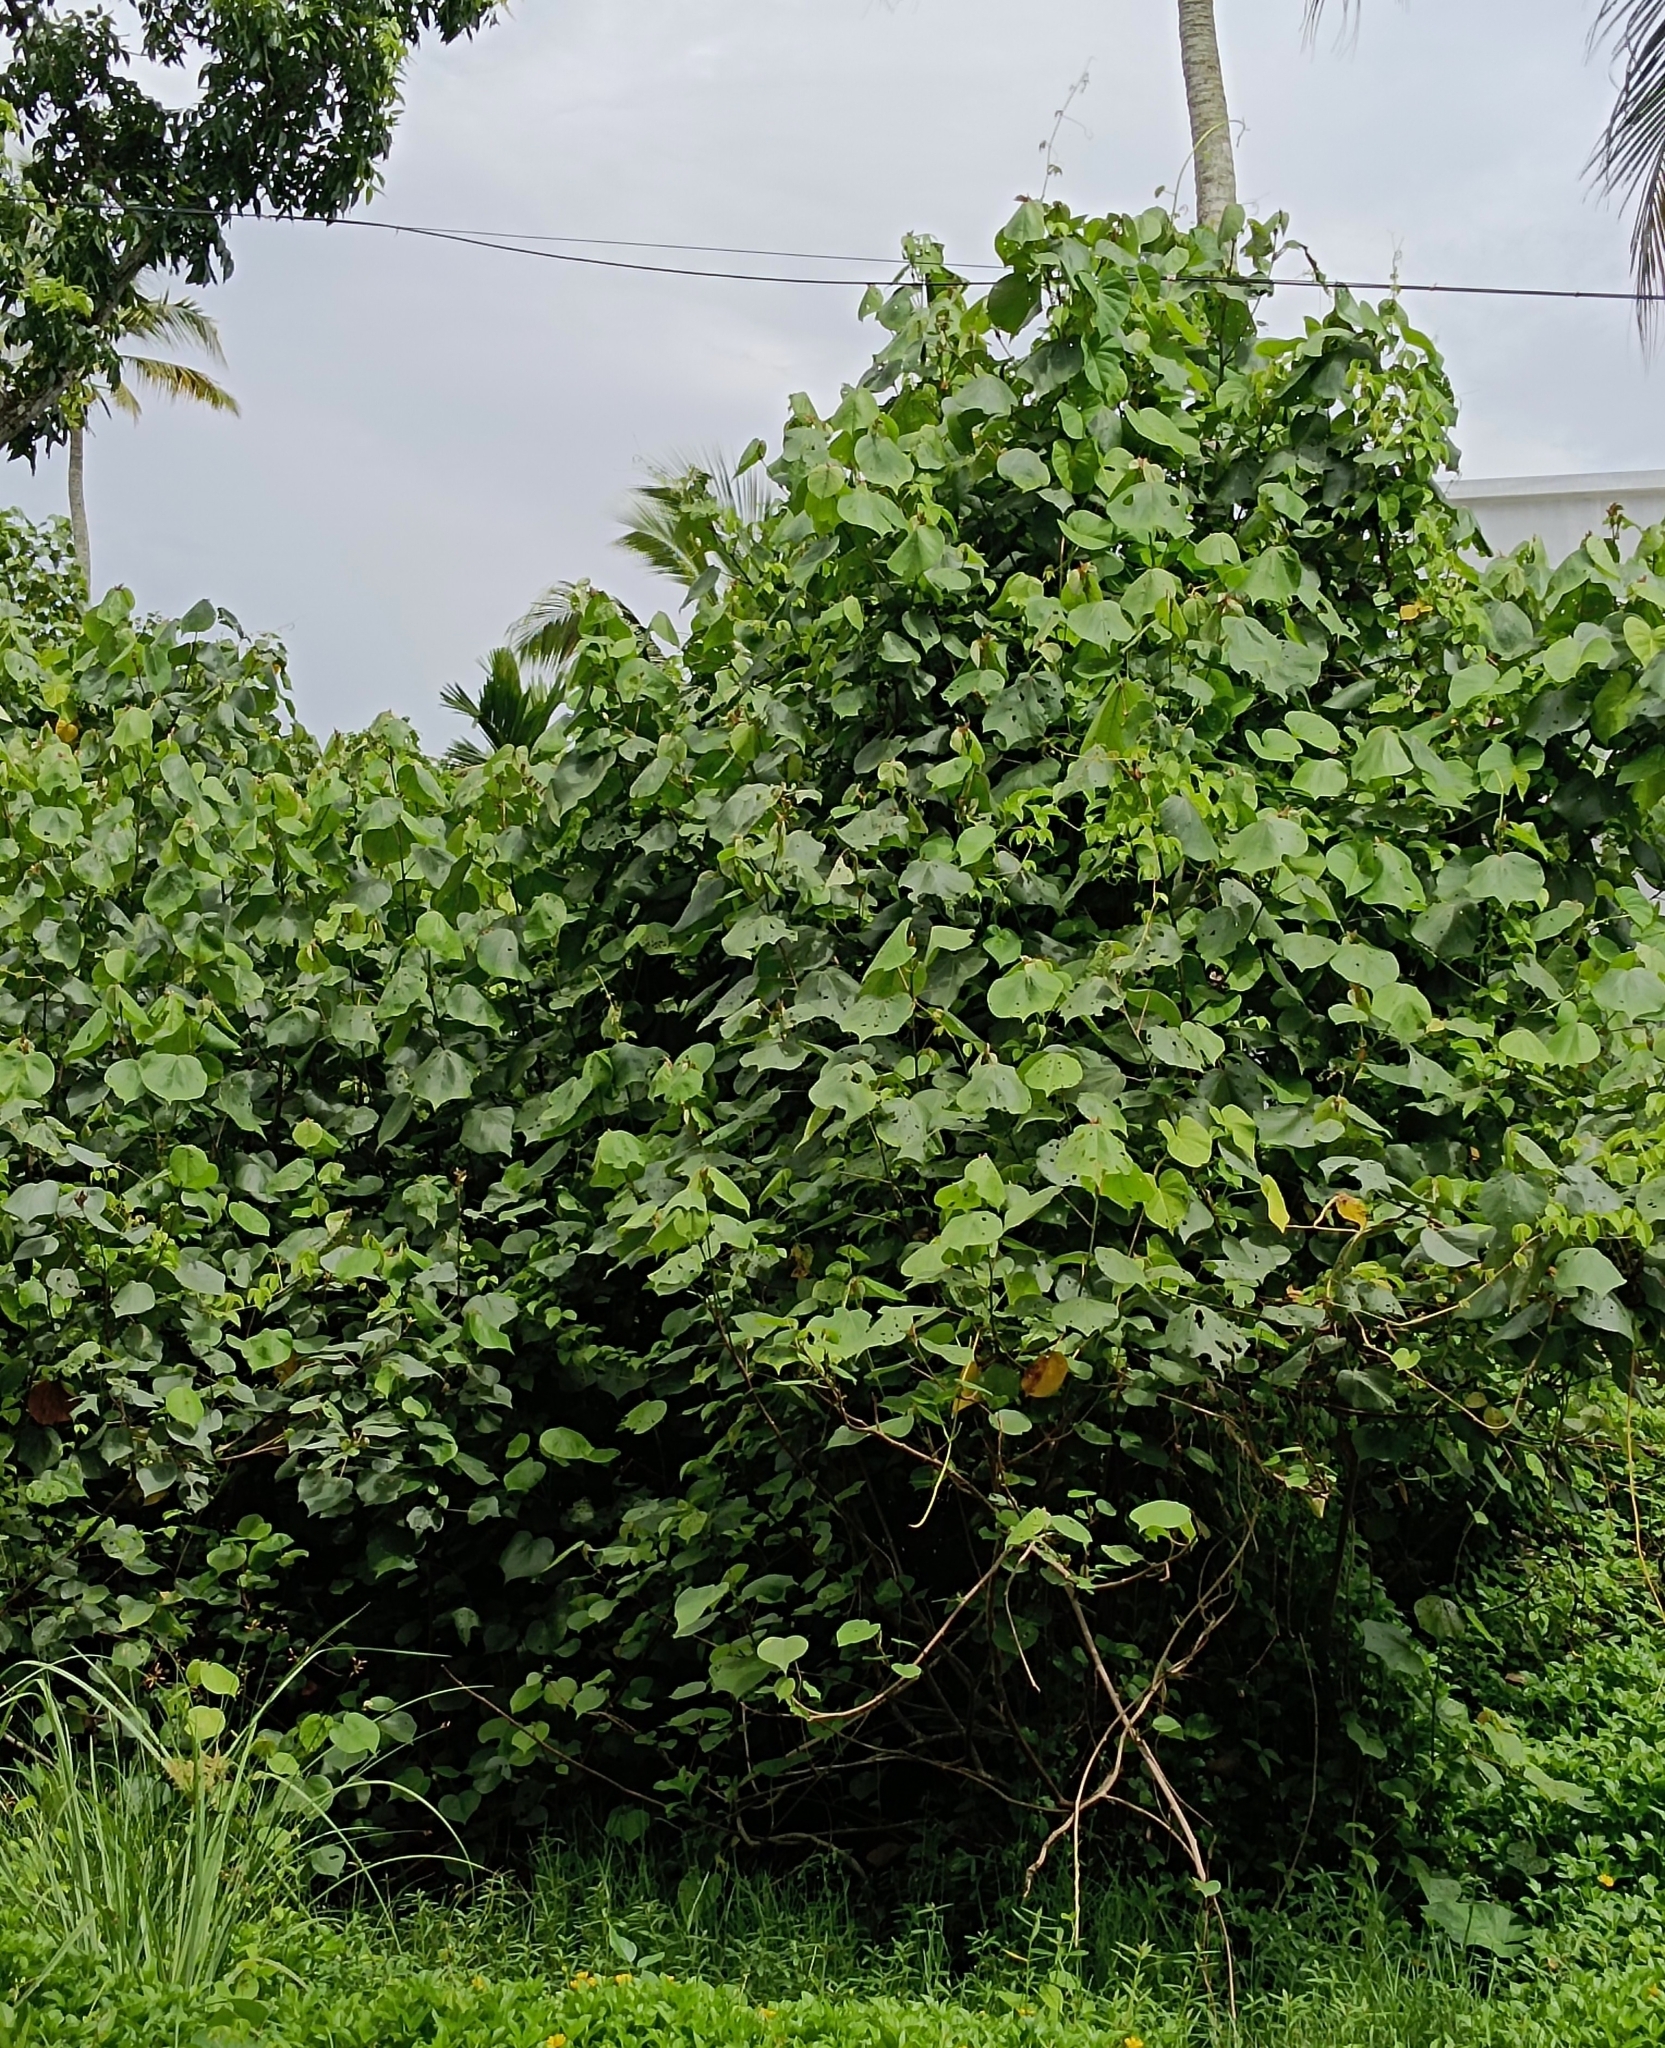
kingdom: Plantae
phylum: Tracheophyta
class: Magnoliopsida
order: Malvales
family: Malvaceae
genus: Talipariti
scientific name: Talipariti tiliaceum
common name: Sea hibiscus
